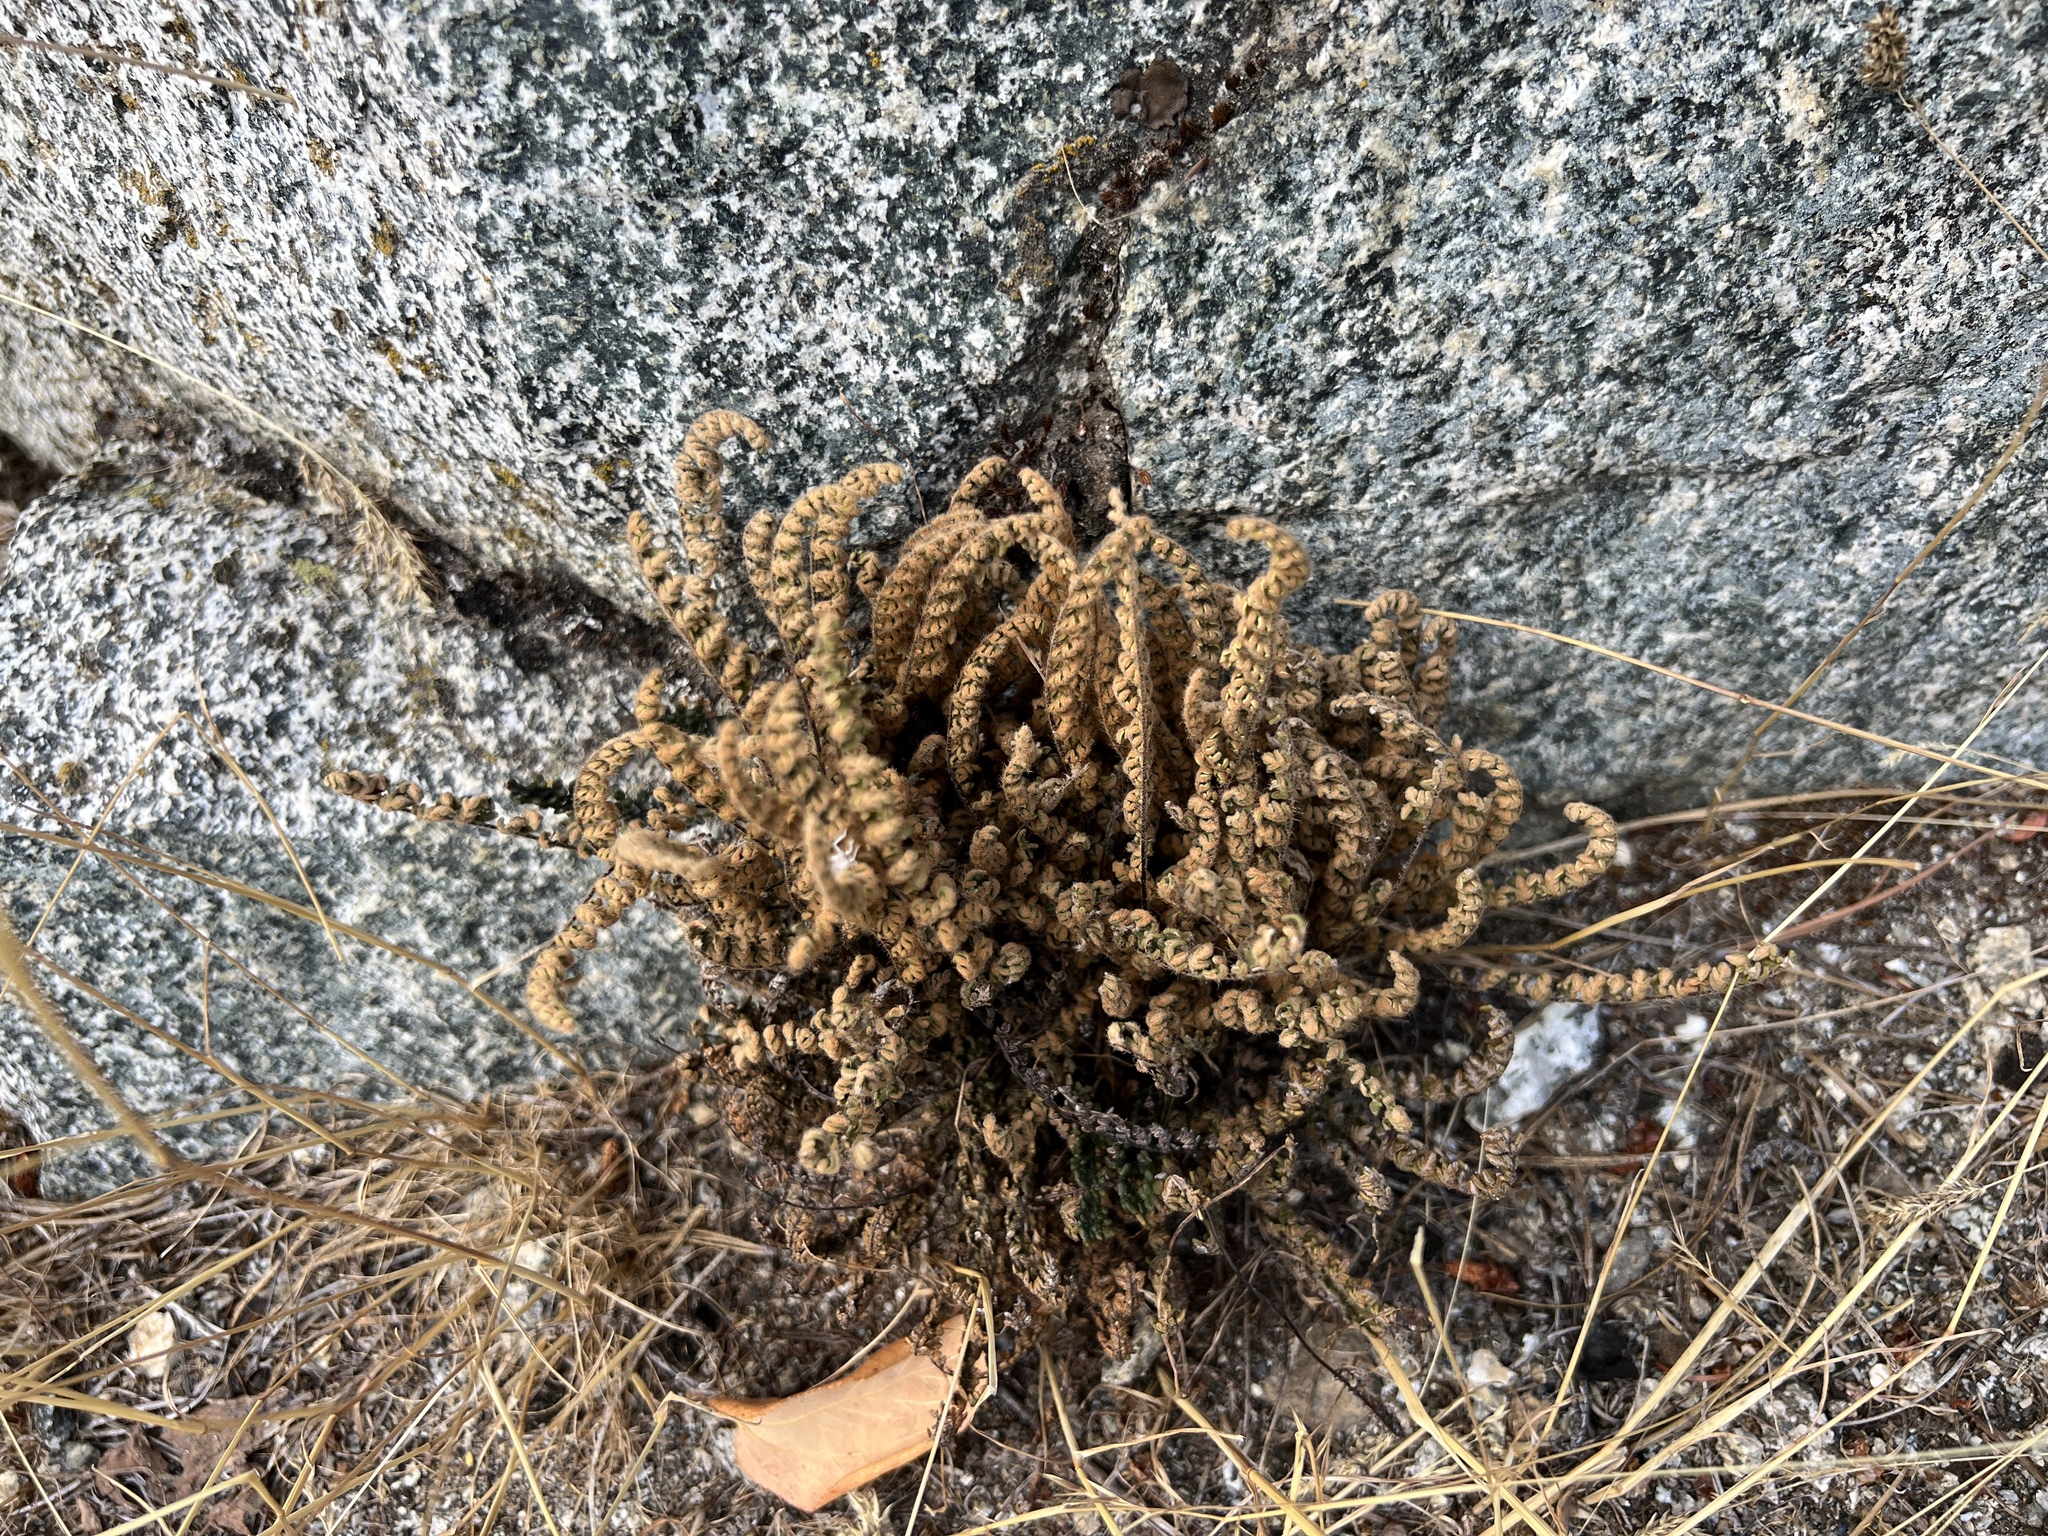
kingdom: Plantae
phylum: Tracheophyta
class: Polypodiopsida
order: Polypodiales
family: Pteridaceae
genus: Myriopteris
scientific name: Myriopteris gracillima
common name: Lace fern
